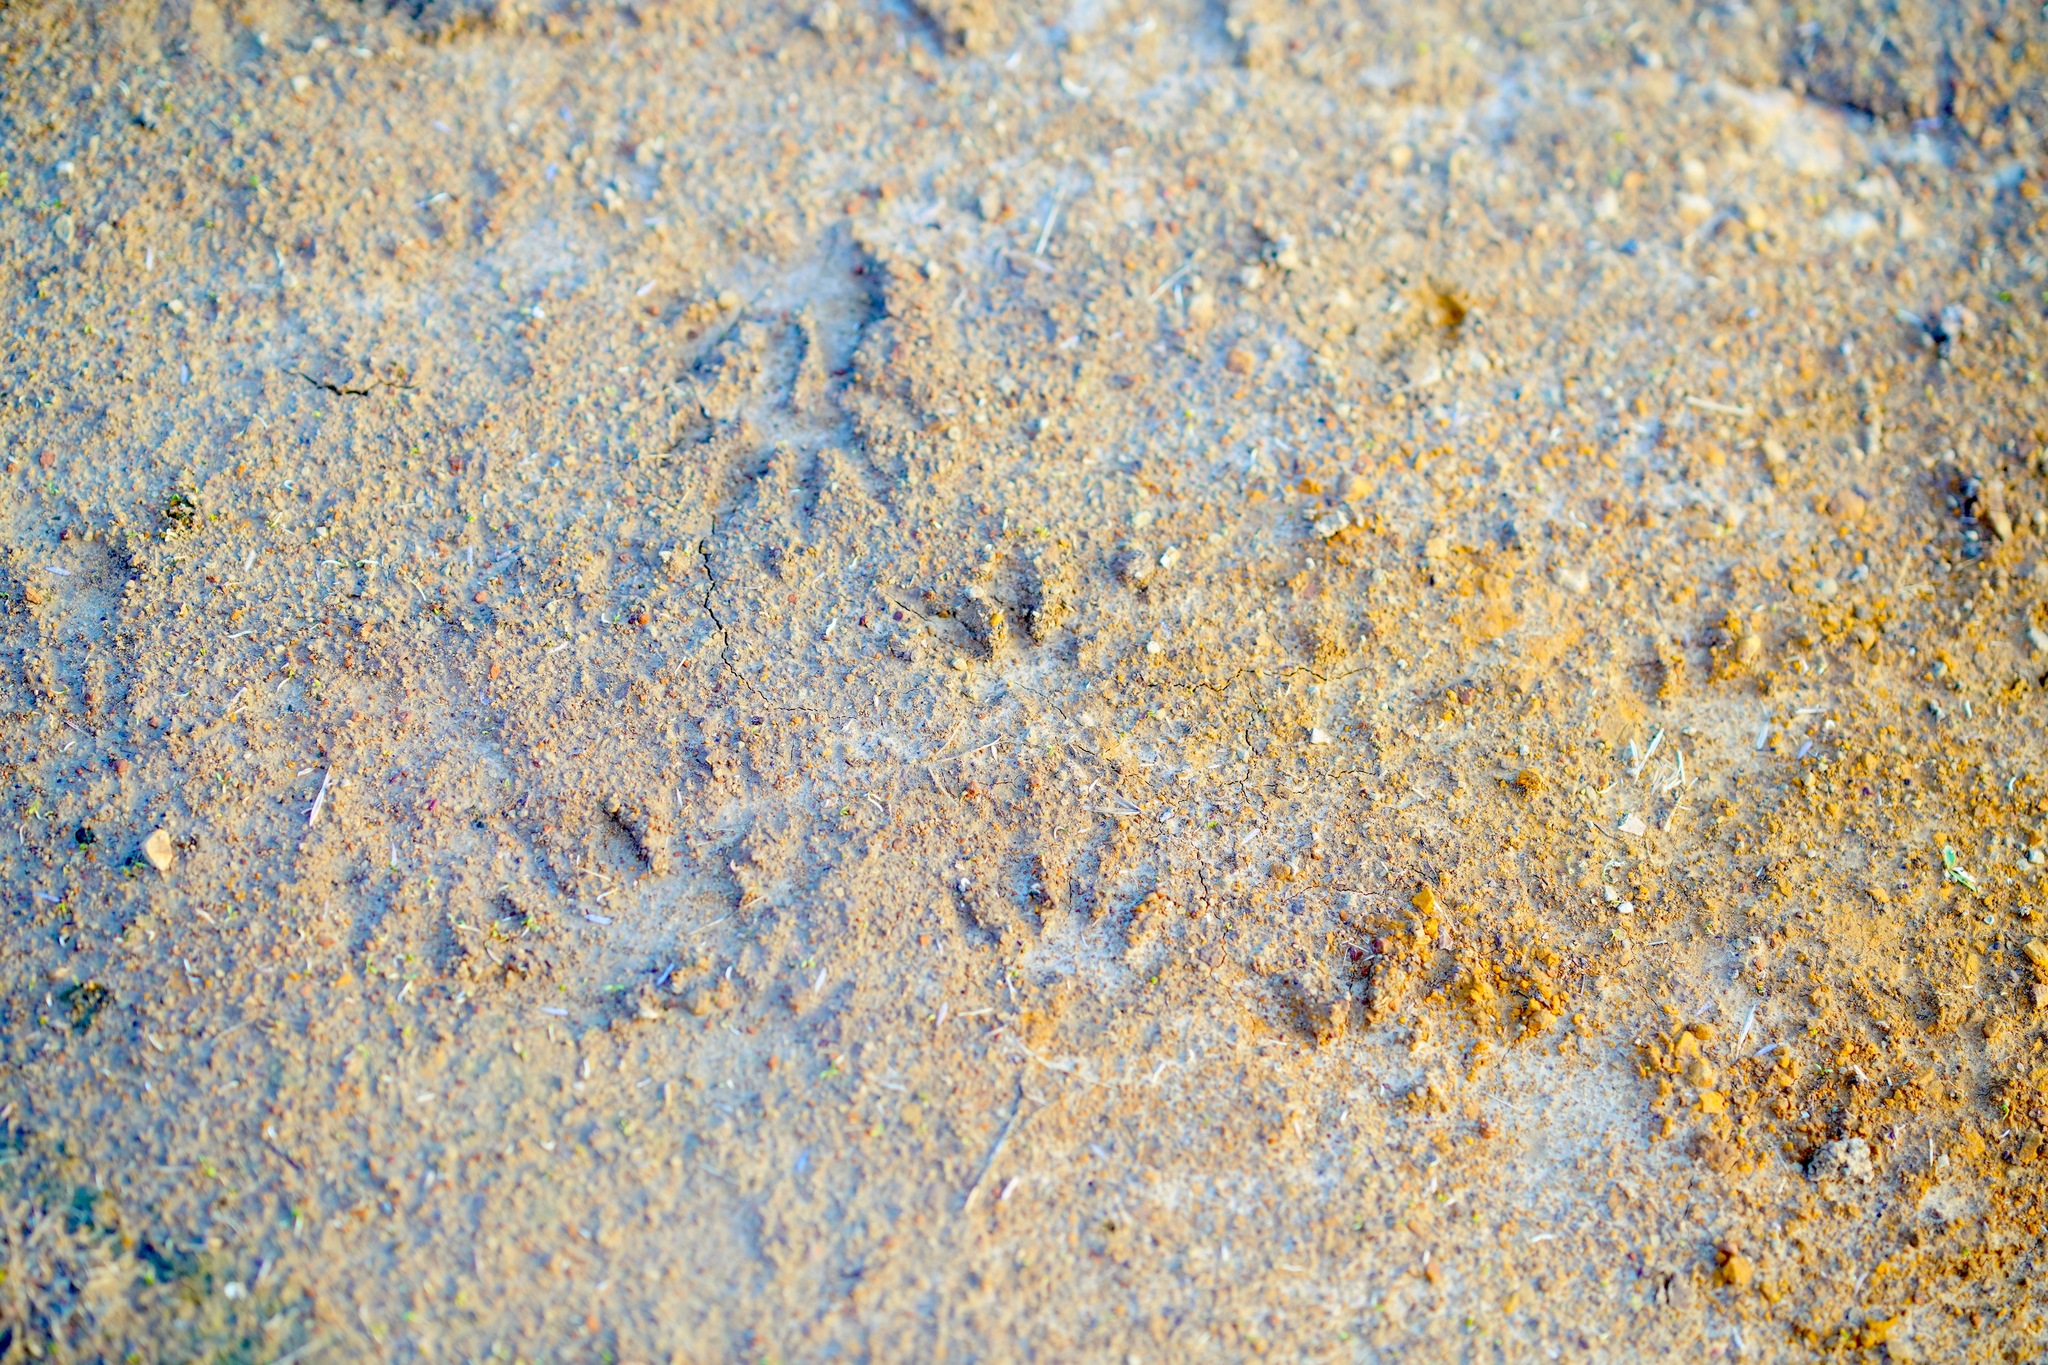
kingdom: Animalia
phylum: Chordata
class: Mammalia
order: Carnivora
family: Procyonidae
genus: Procyon
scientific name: Procyon lotor
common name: Raccoon
